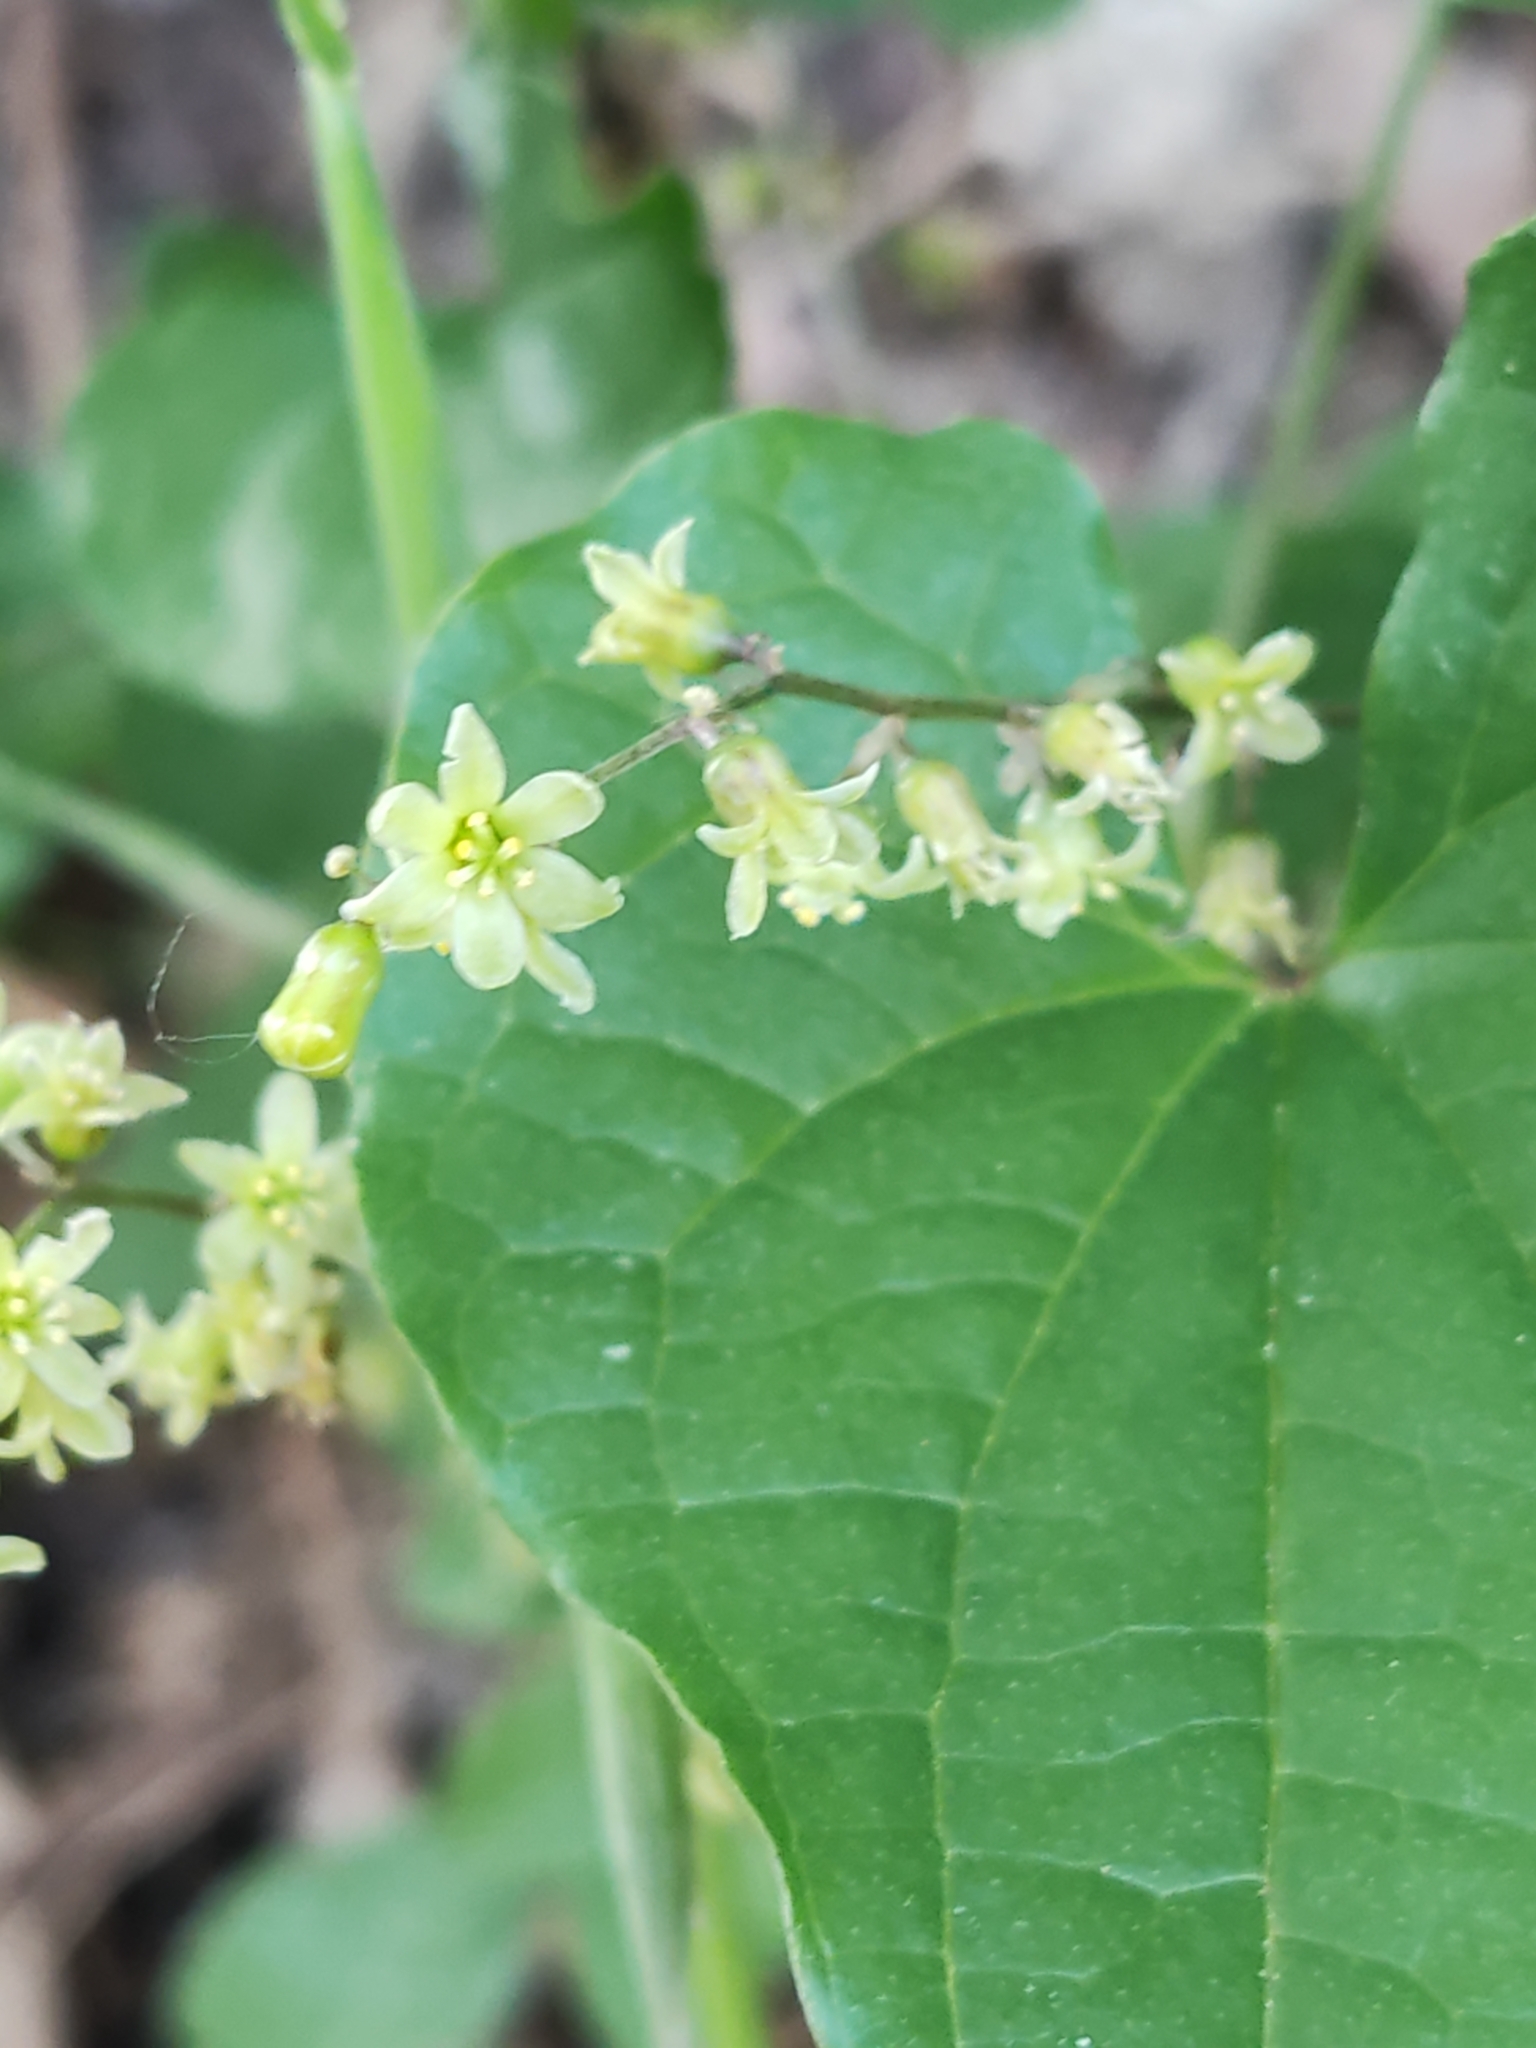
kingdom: Plantae
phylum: Tracheophyta
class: Liliopsida
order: Dioscoreales
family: Dioscoreaceae
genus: Dioscorea
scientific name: Dioscorea communis
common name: Black-bindweed
